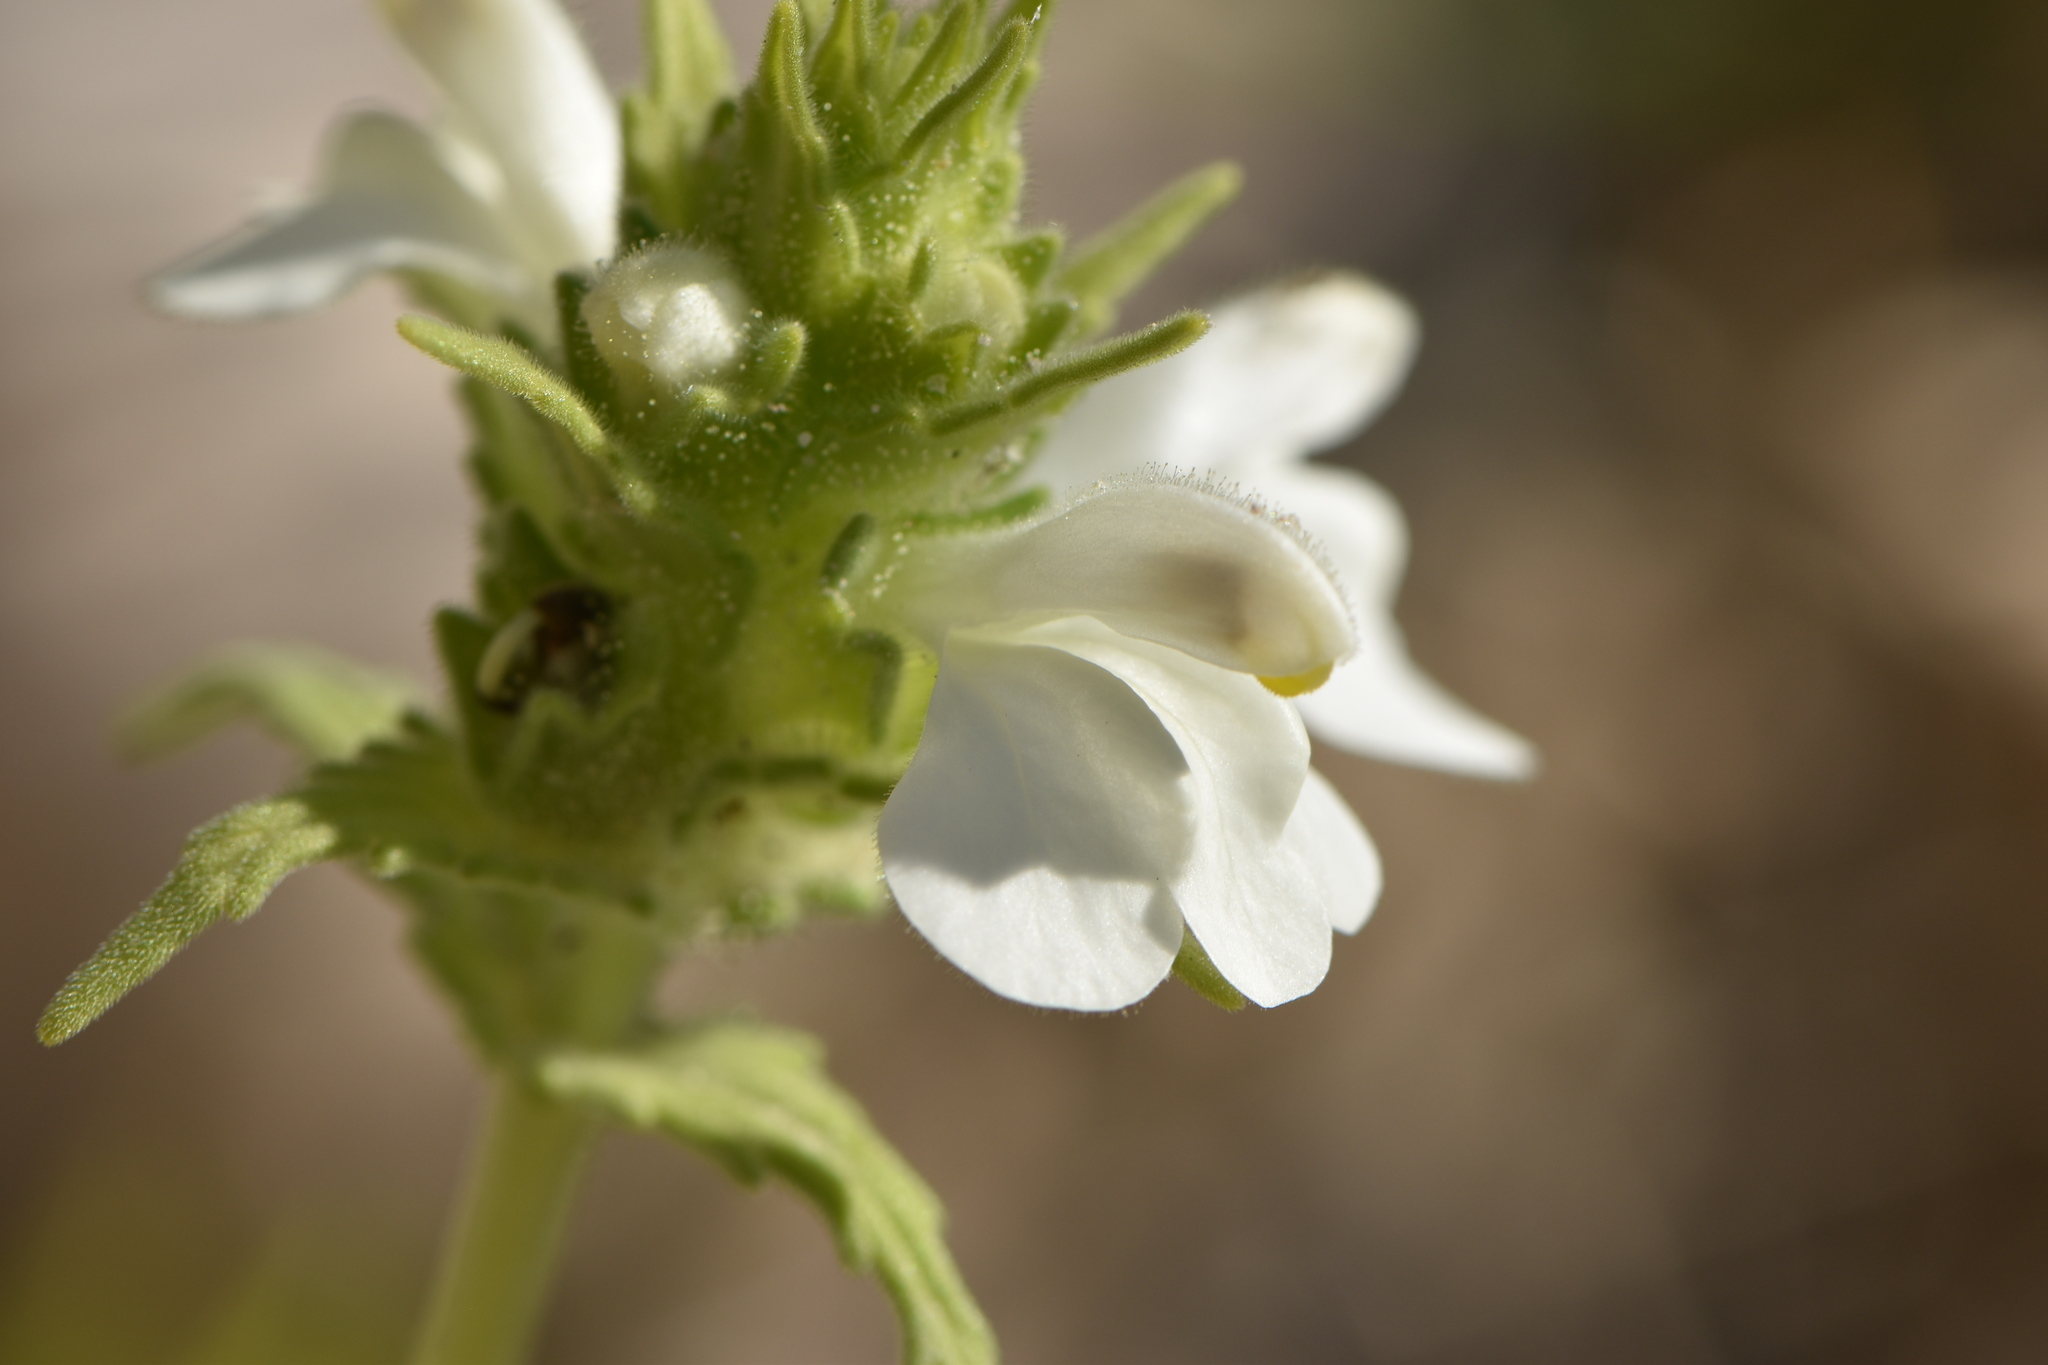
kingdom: Plantae
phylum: Tracheophyta
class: Magnoliopsida
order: Lamiales
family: Orobanchaceae
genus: Bellardia
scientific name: Bellardia trixago
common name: Mediterranean lineseed
